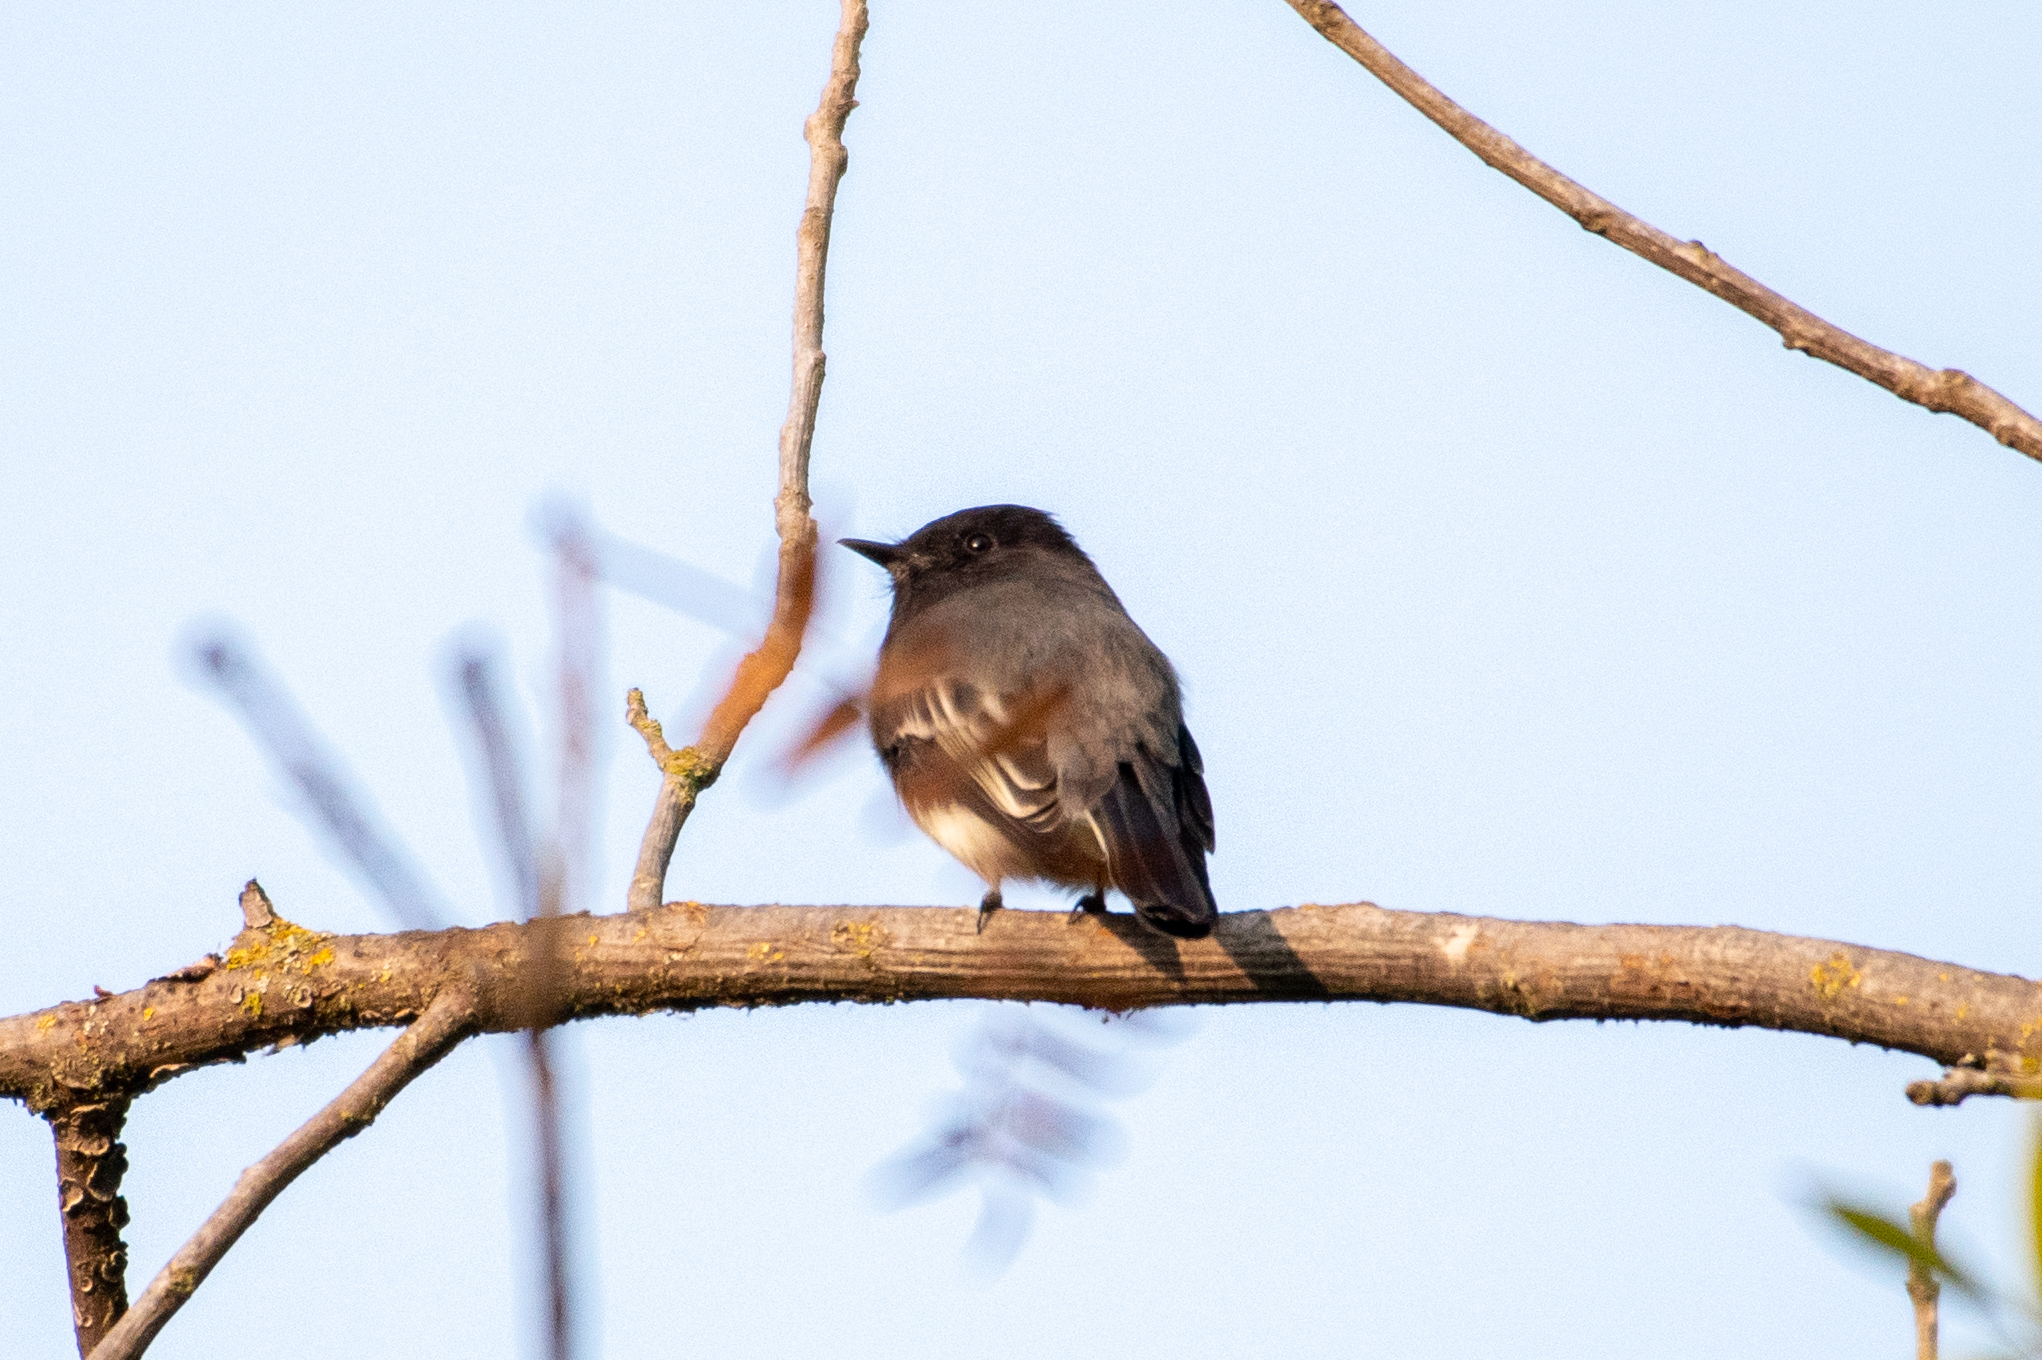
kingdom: Animalia
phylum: Chordata
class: Aves
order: Passeriformes
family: Tyrannidae
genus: Sayornis
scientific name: Sayornis nigricans
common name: Black phoebe
